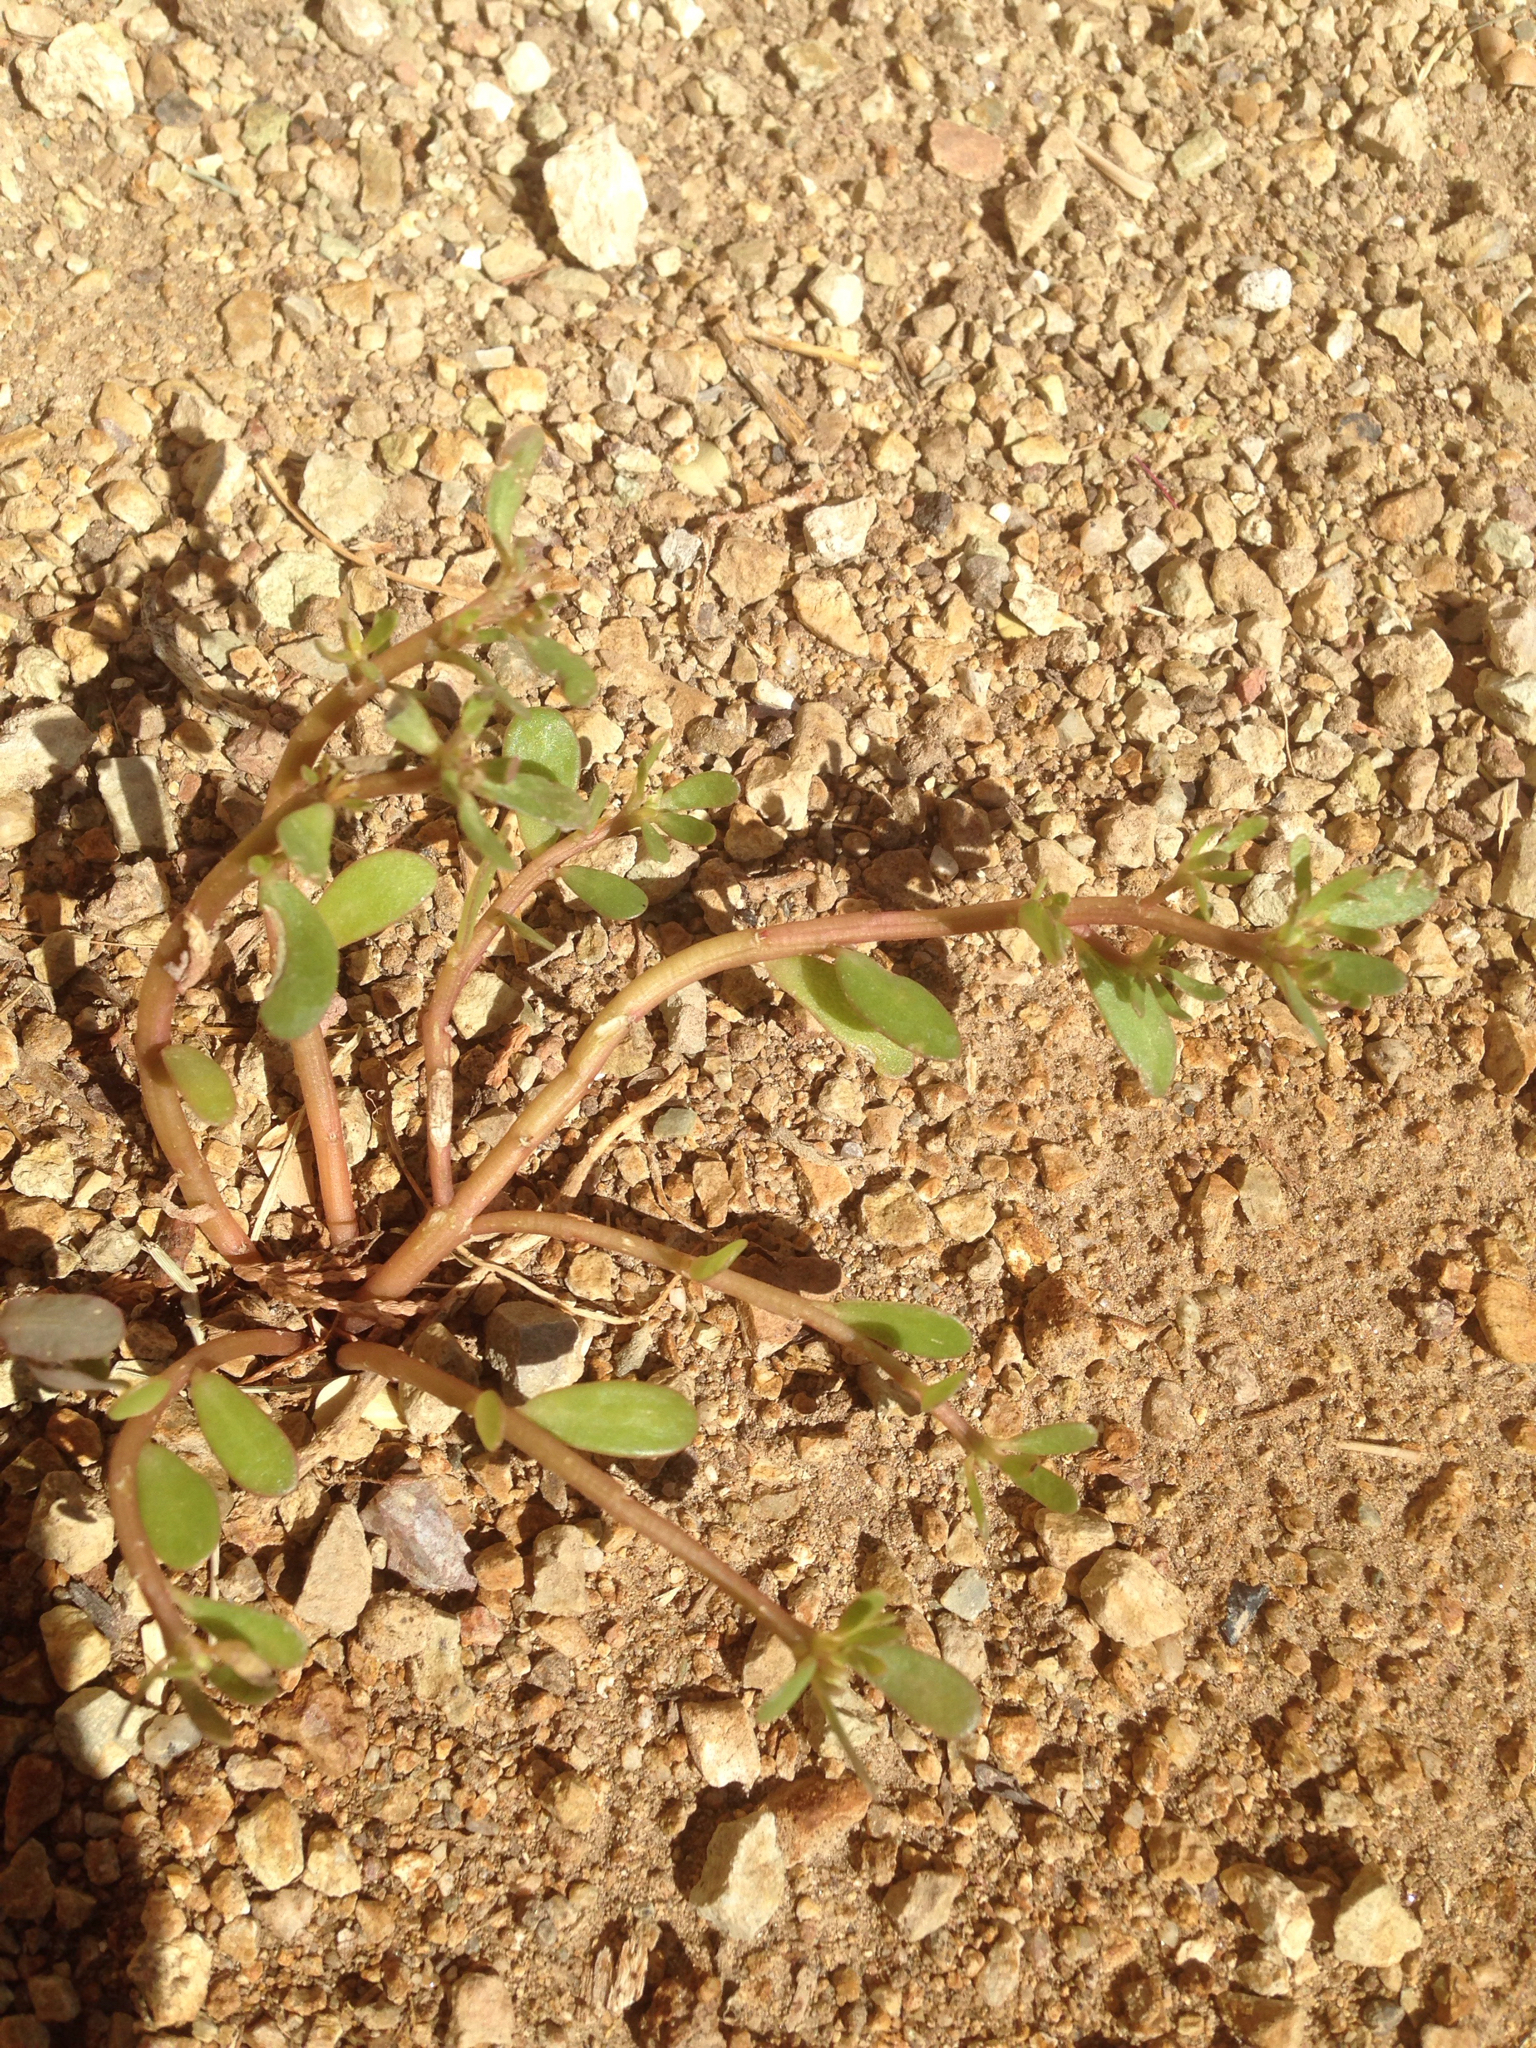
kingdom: Plantae
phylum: Tracheophyta
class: Magnoliopsida
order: Caryophyllales
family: Portulacaceae
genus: Portulaca
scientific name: Portulaca oleracea
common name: Common purslane
